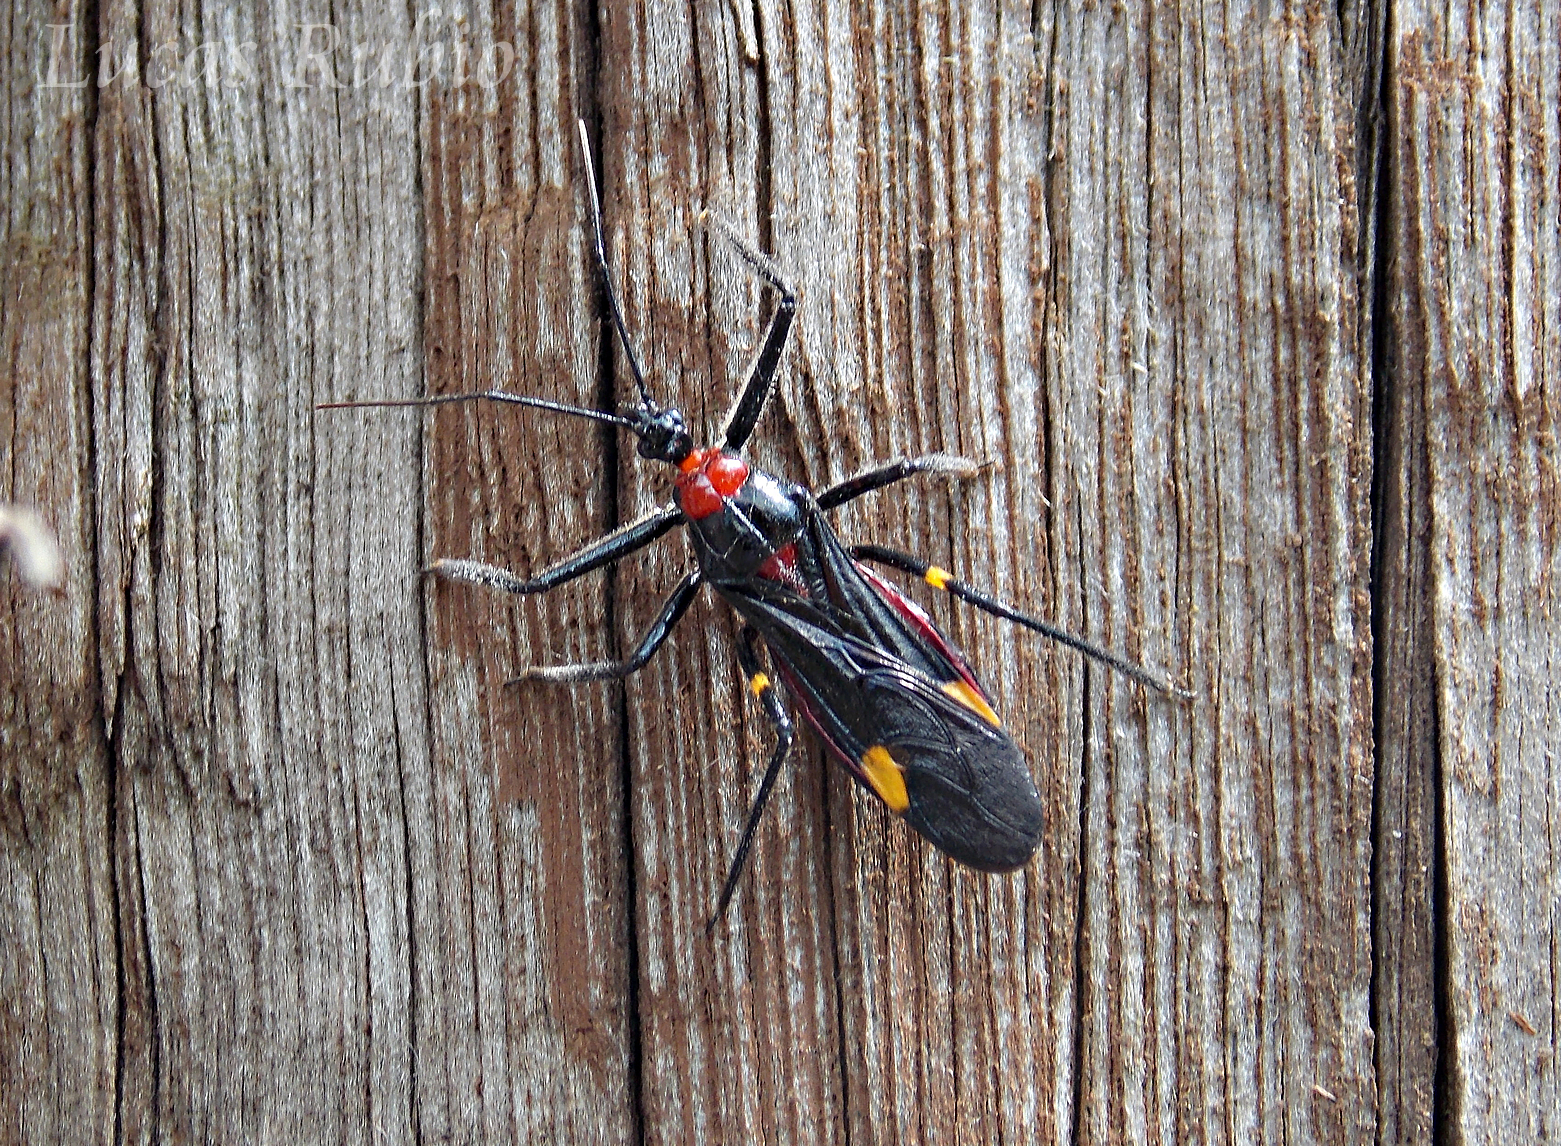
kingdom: Animalia
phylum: Arthropoda
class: Insecta
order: Hemiptera
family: Reduviidae
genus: Graptocleptes
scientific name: Graptocleptes bicolor
